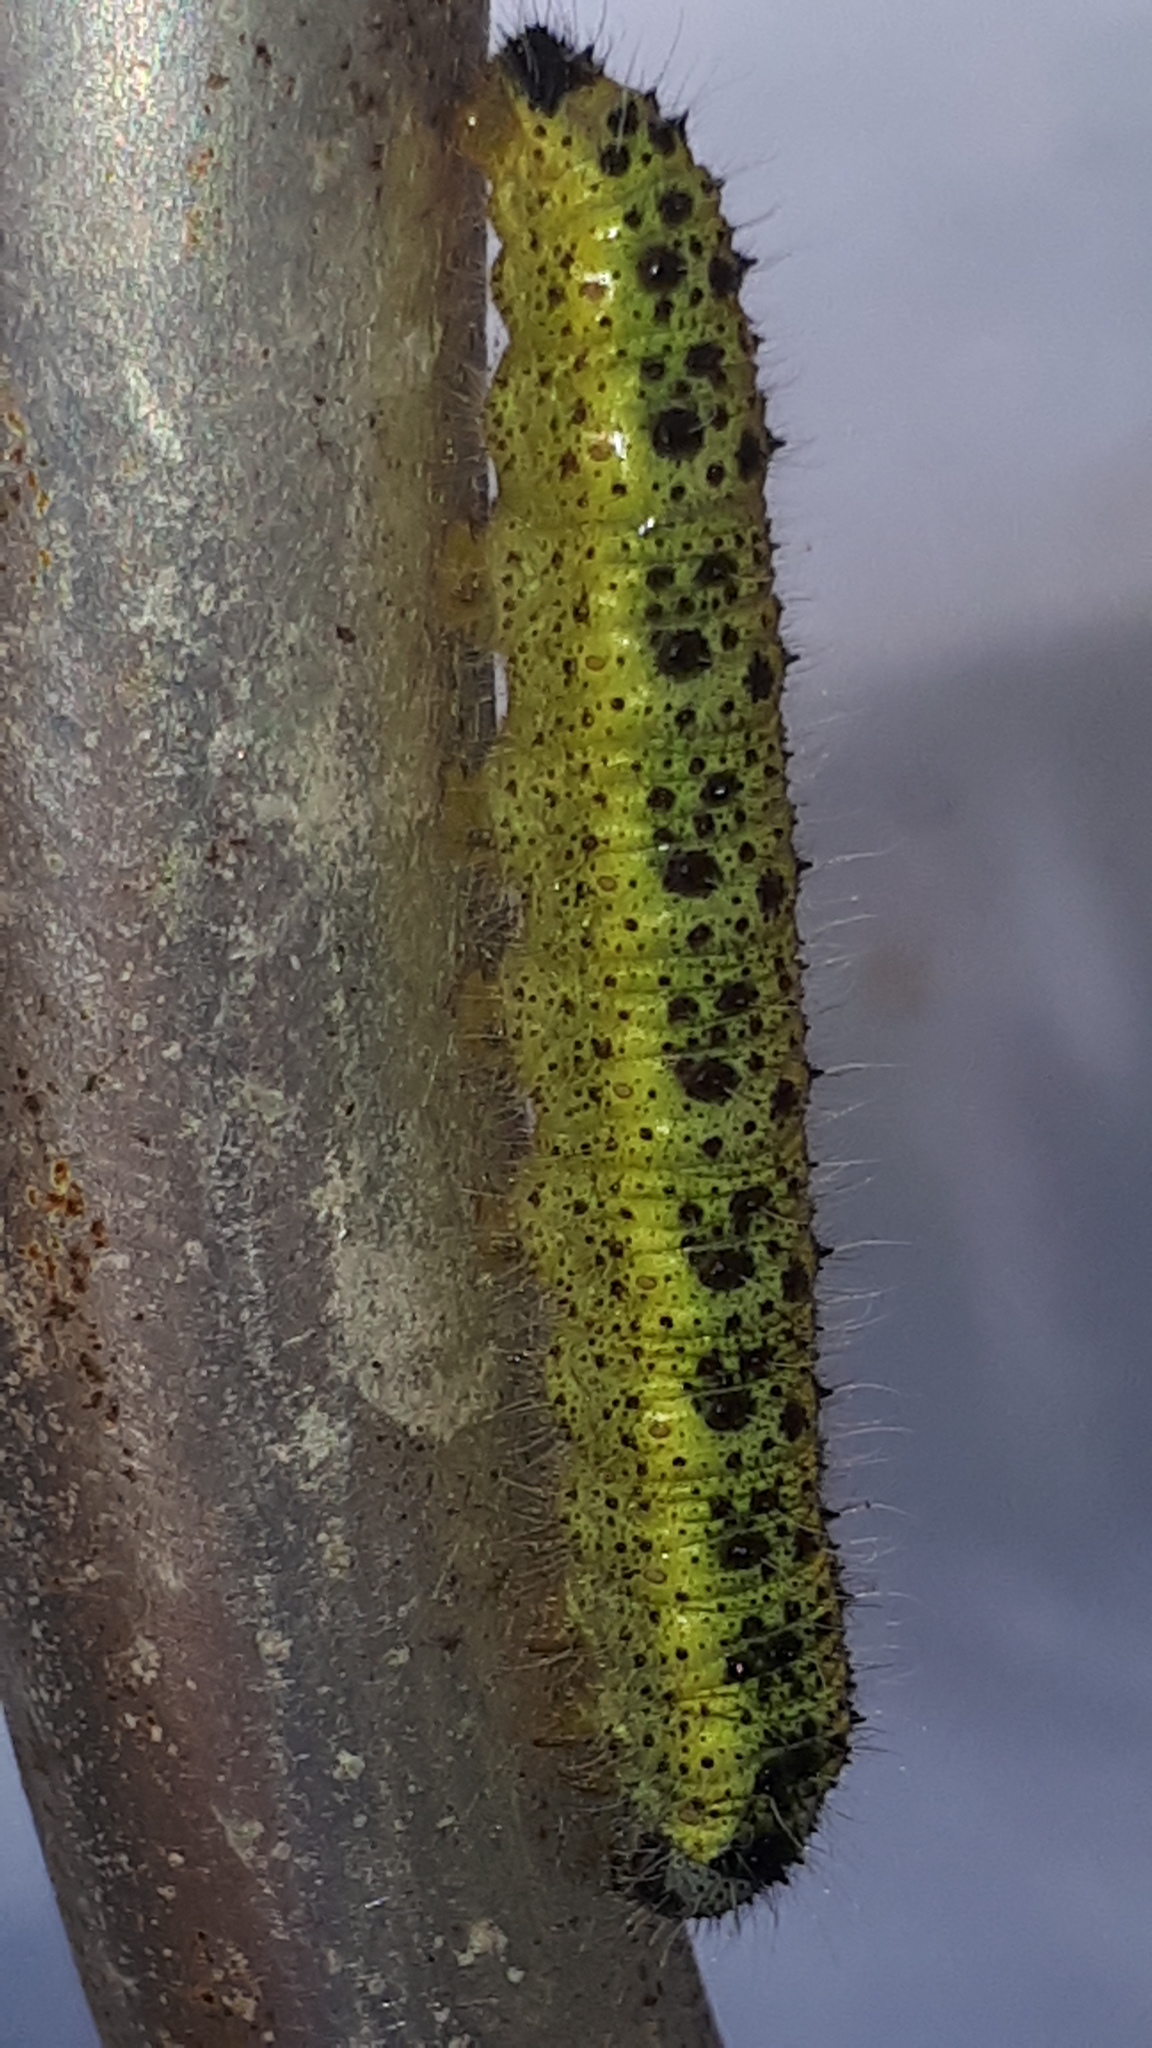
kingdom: Animalia
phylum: Arthropoda
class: Insecta
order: Lepidoptera
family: Pieridae
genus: Pieris
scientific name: Pieris brassicae
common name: Large white
